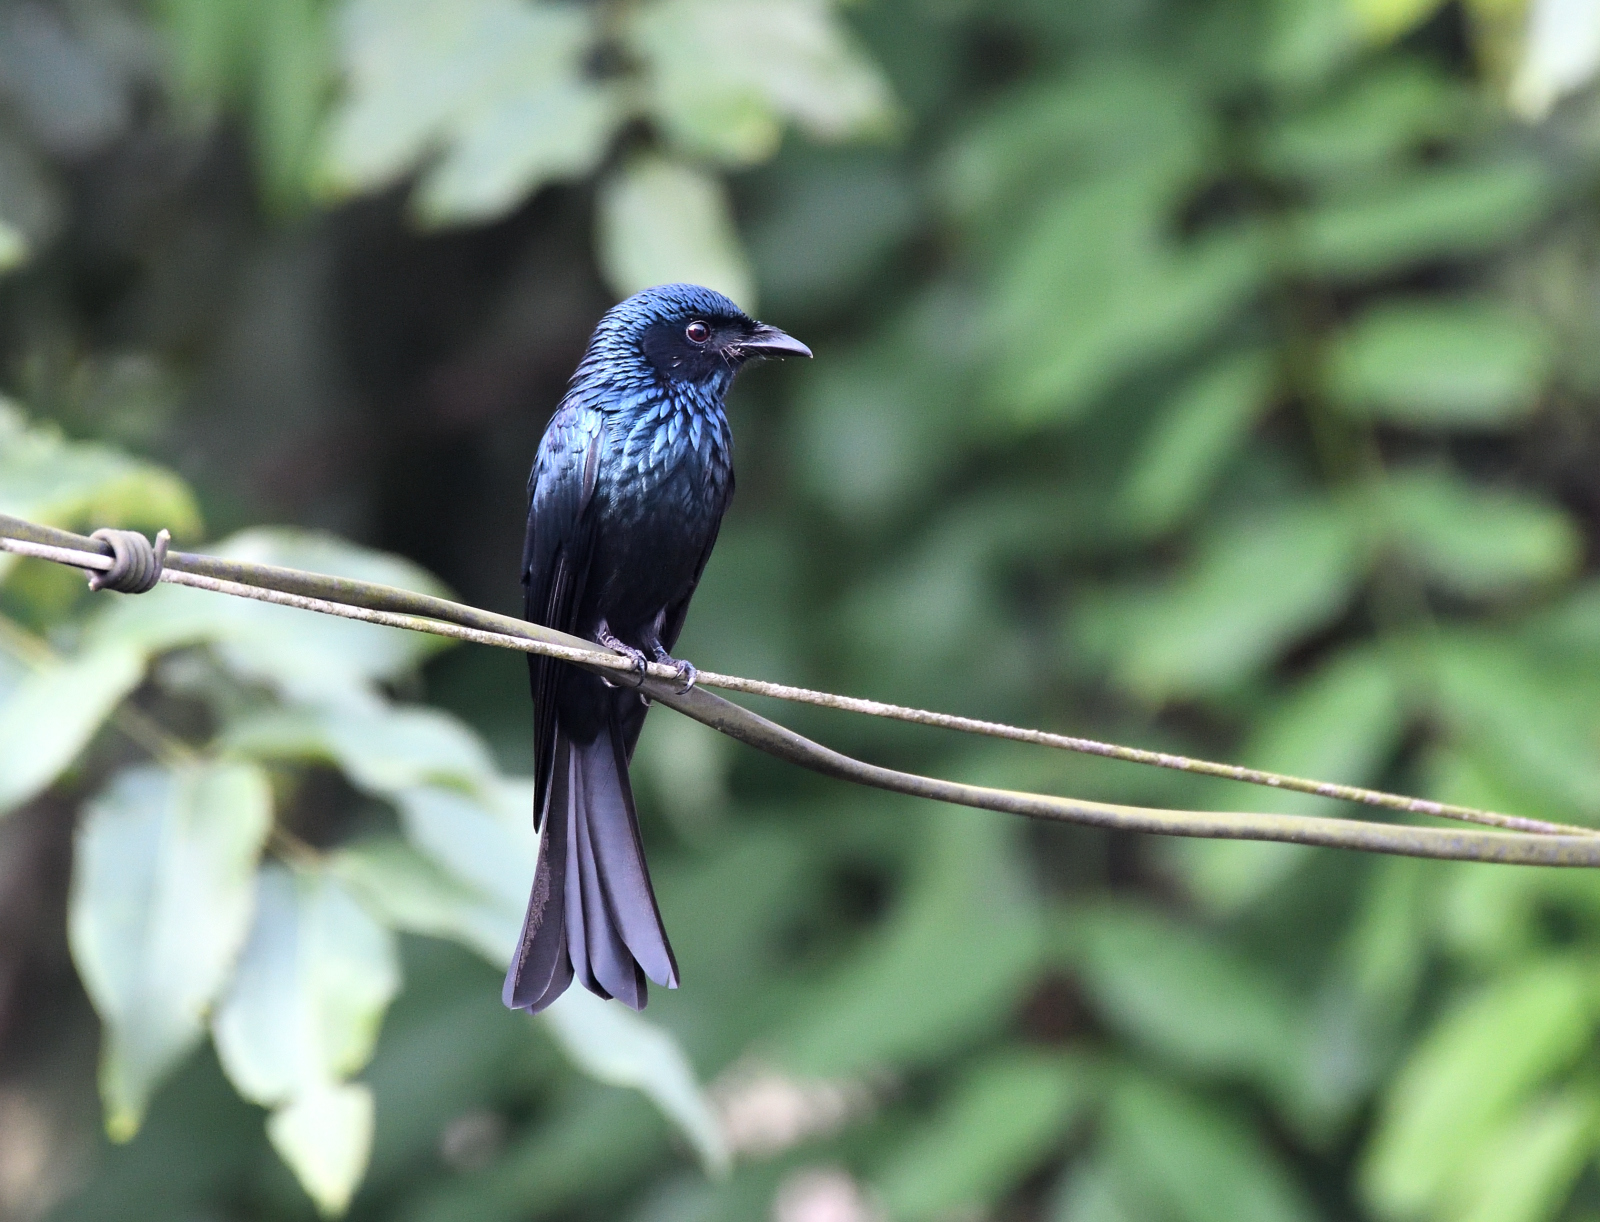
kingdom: Animalia
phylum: Chordata
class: Aves
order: Passeriformes
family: Dicruridae
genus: Dicrurus
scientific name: Dicrurus aeneus
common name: Bronzed drongo
